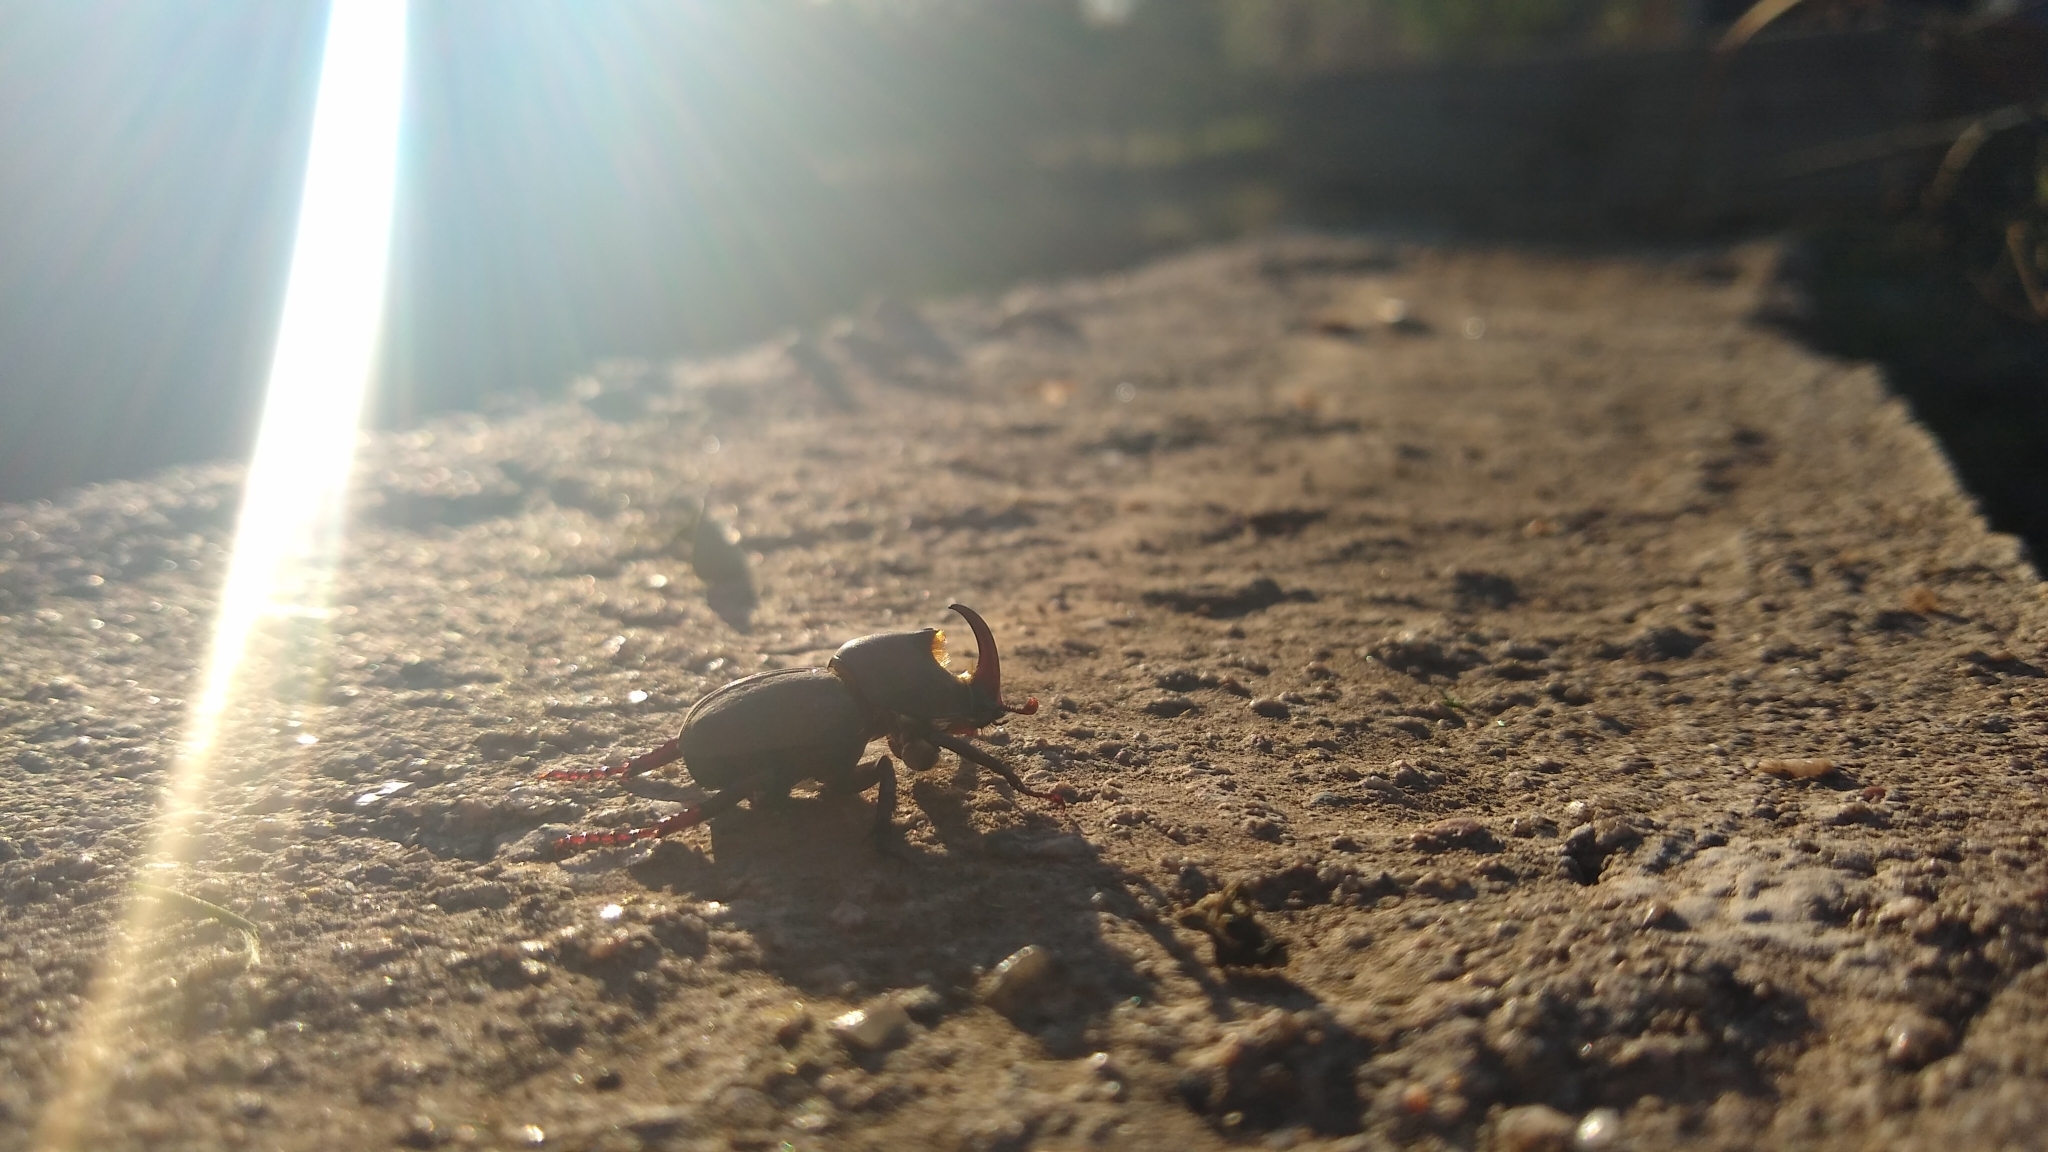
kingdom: Animalia
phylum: Arthropoda
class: Insecta
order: Coleoptera
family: Scarabaeidae
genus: Diloboderus
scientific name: Diloboderus abderus
